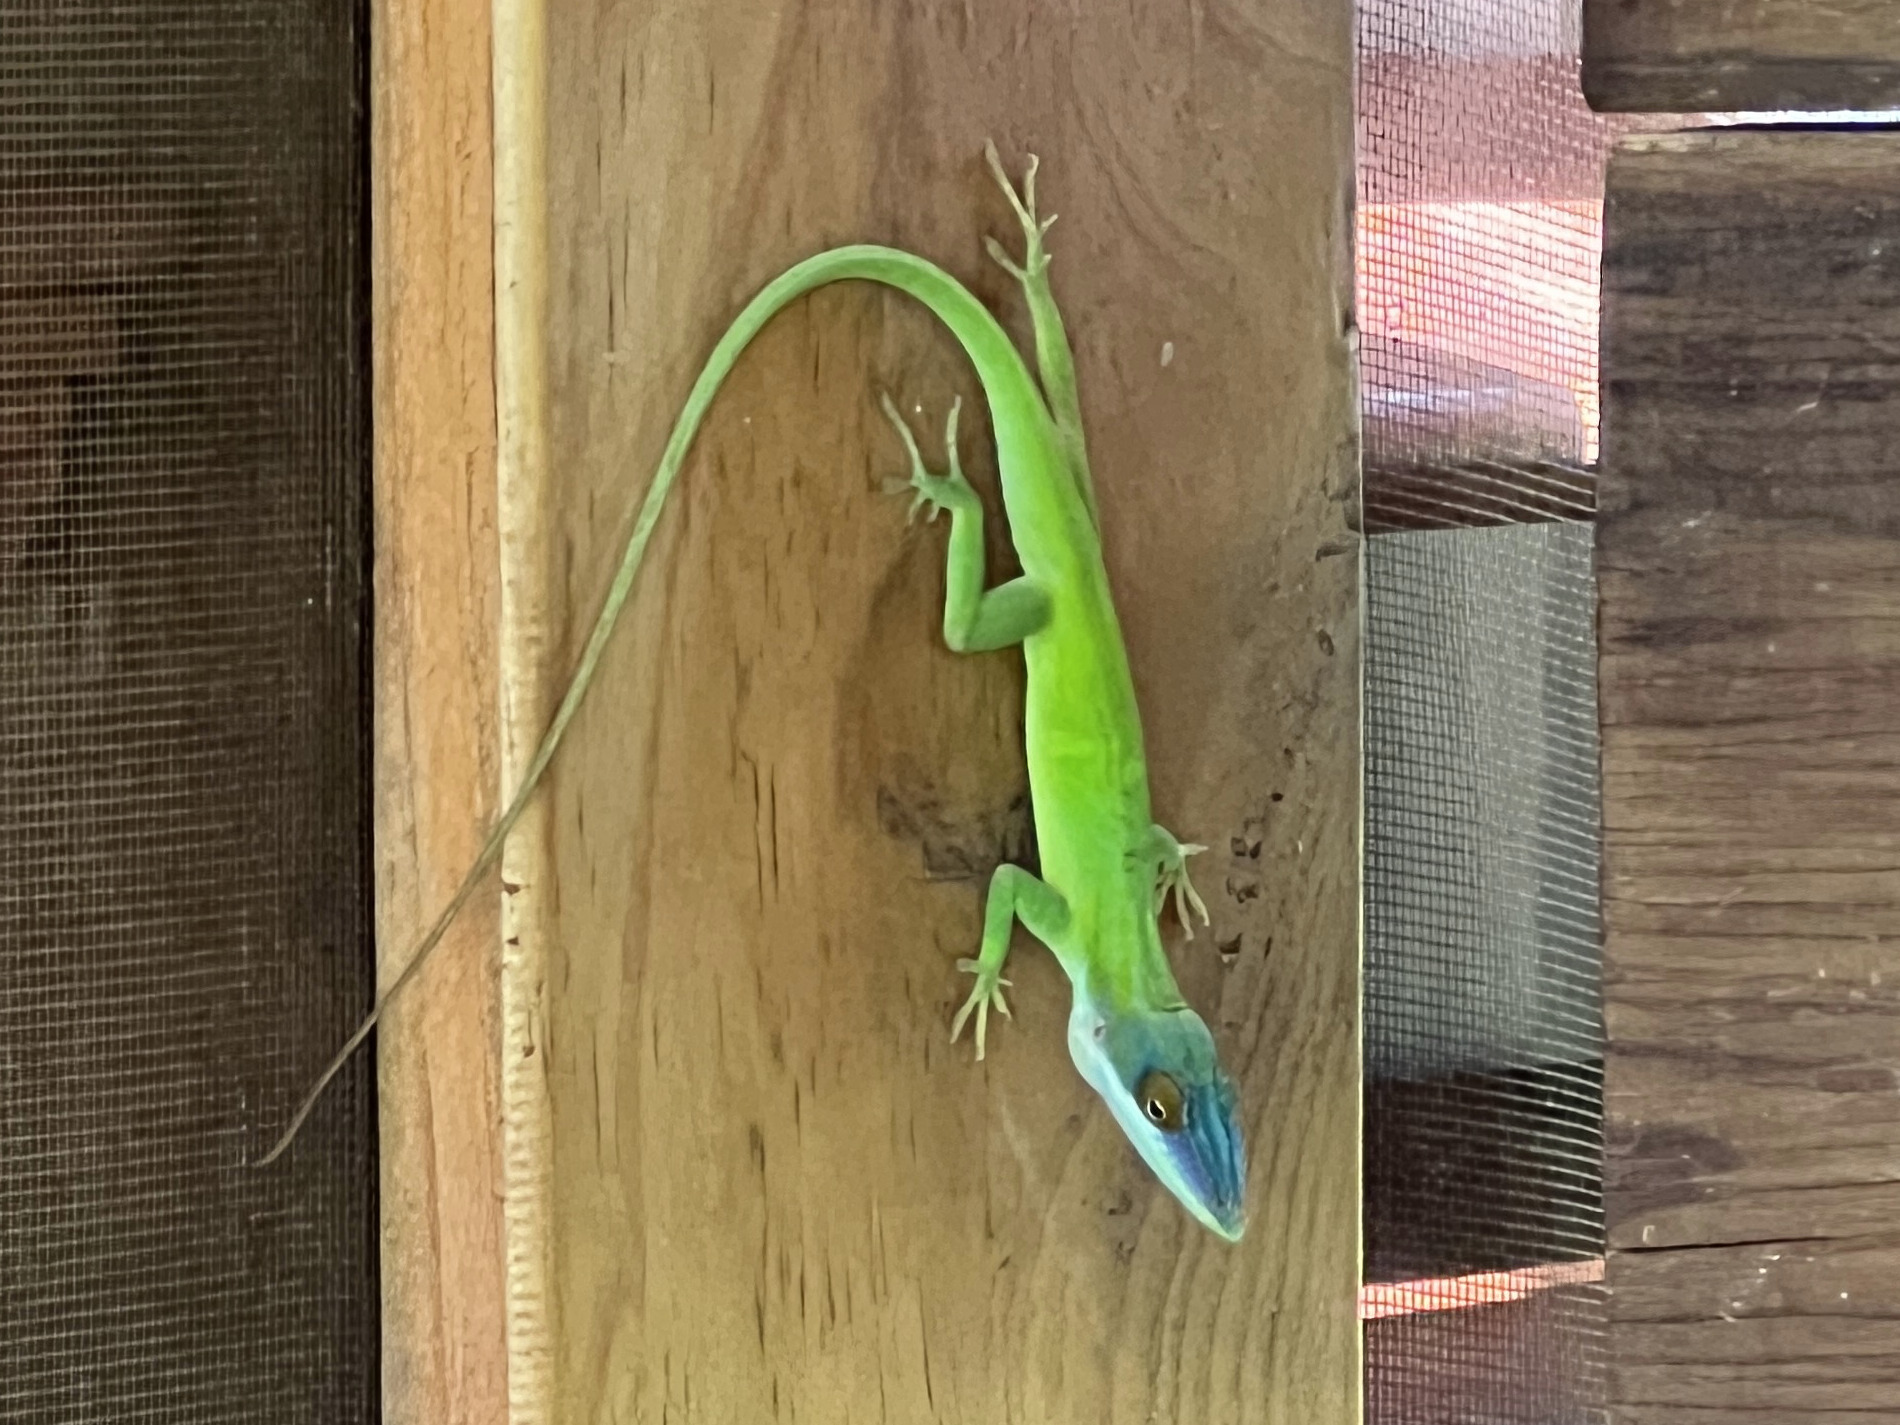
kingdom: Animalia
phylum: Chordata
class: Squamata
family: Dactyloidae
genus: Anolis
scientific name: Anolis allisoni
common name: Allison's anole
